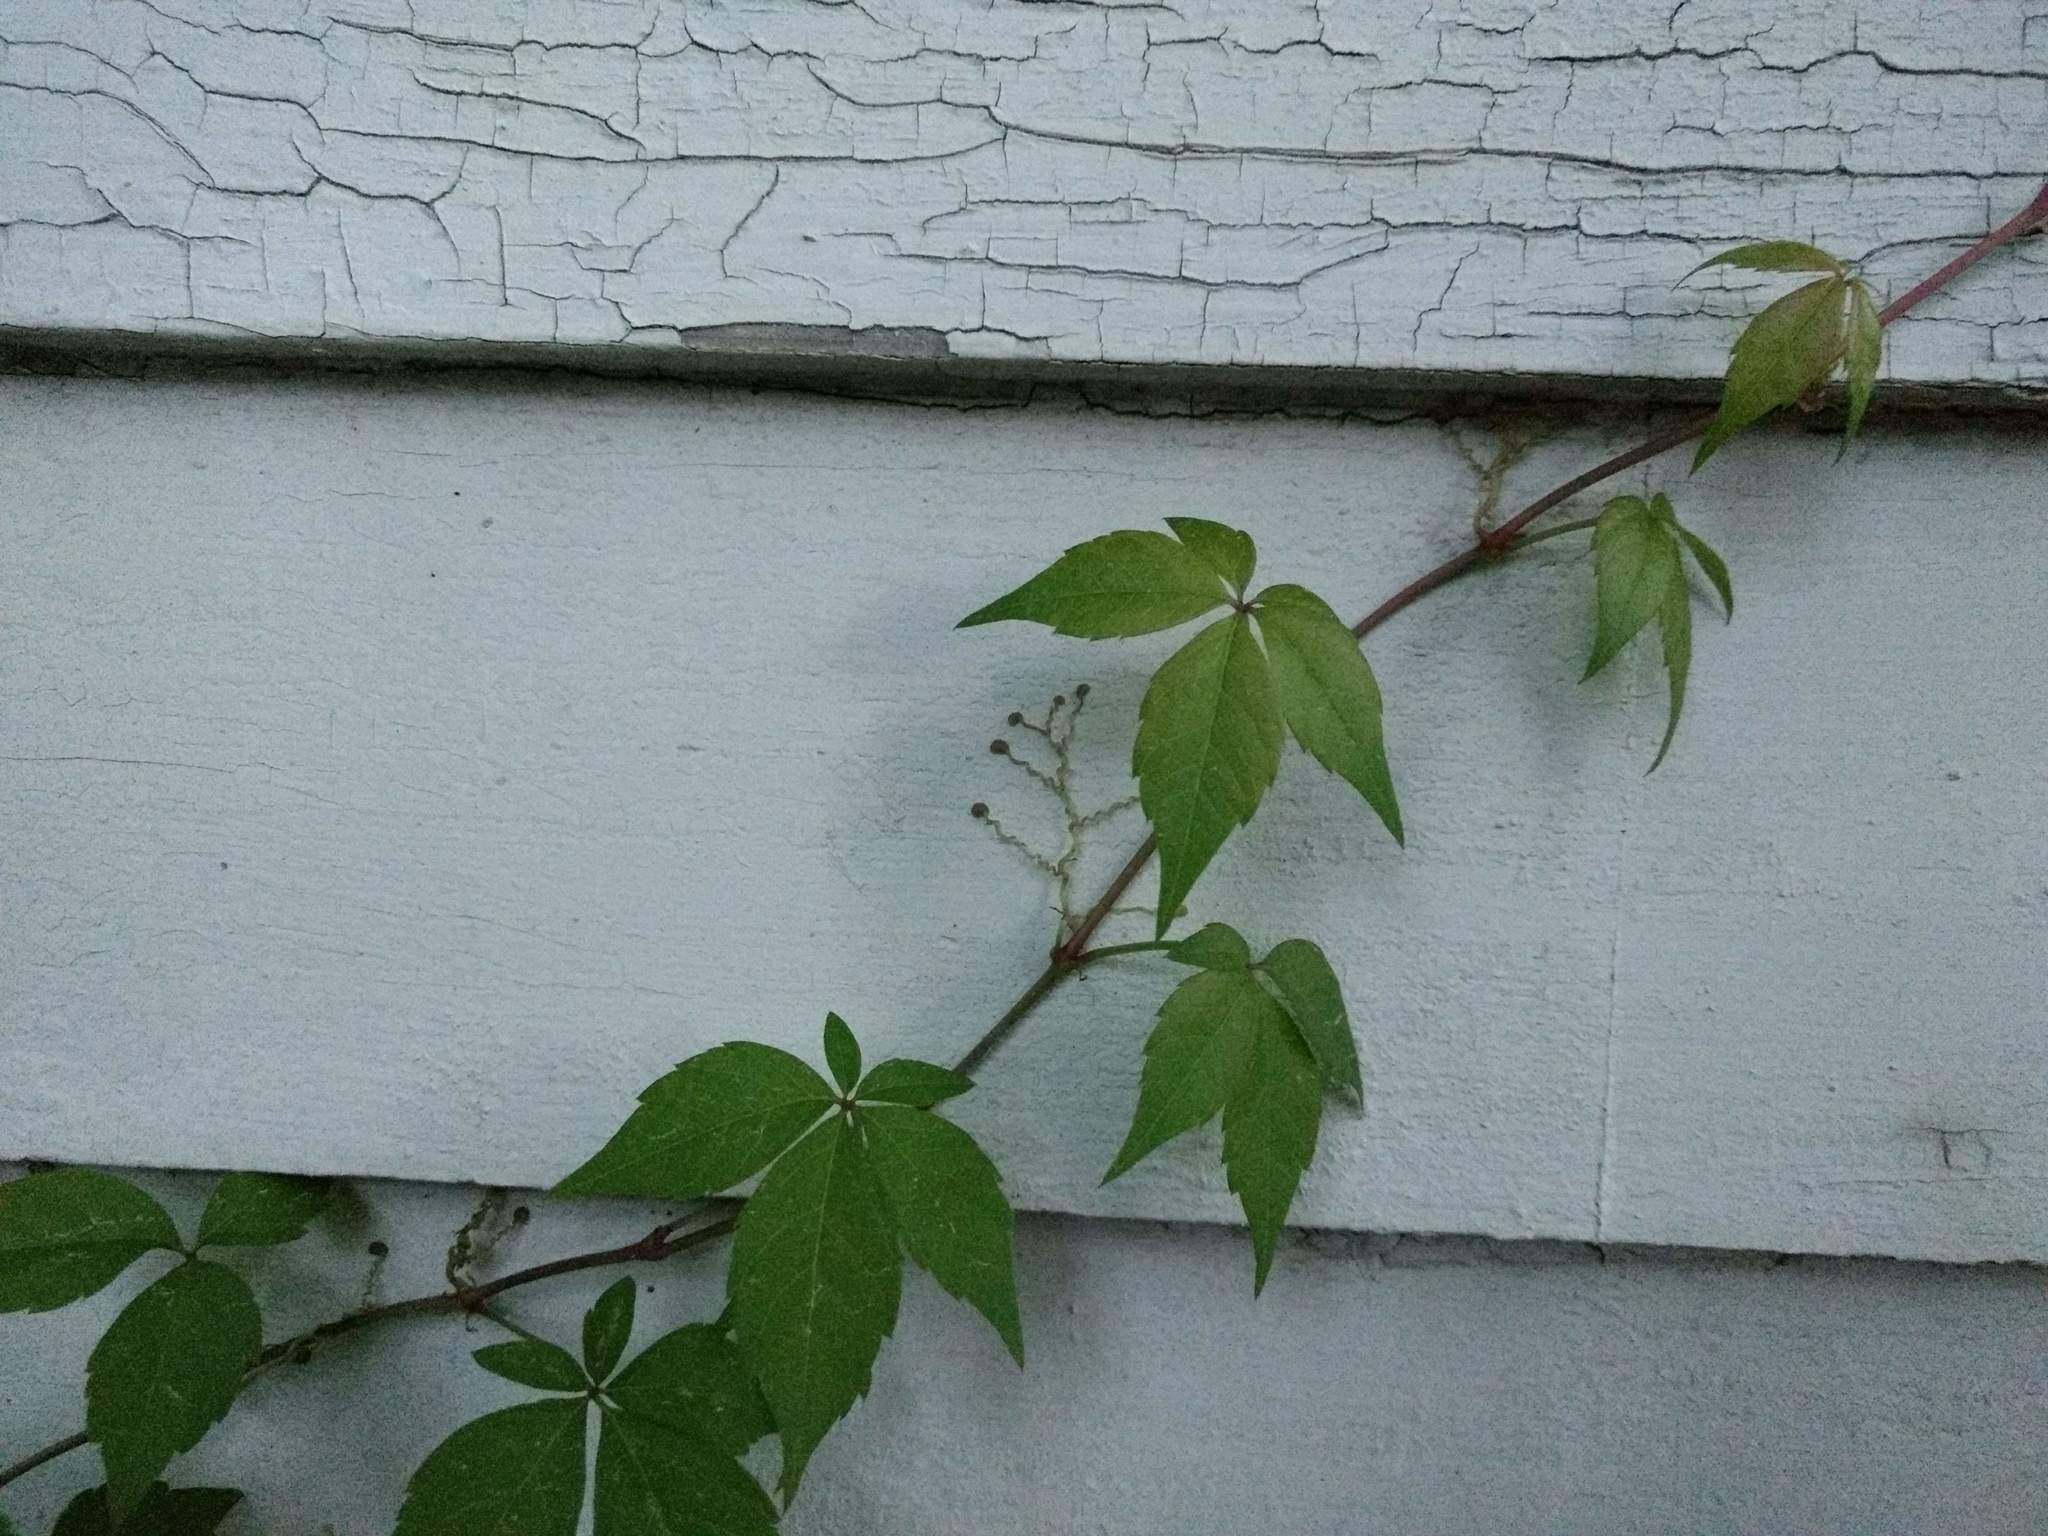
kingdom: Plantae
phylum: Tracheophyta
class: Magnoliopsida
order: Vitales
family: Vitaceae
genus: Parthenocissus
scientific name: Parthenocissus quinquefolia
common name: Virginia-creeper
